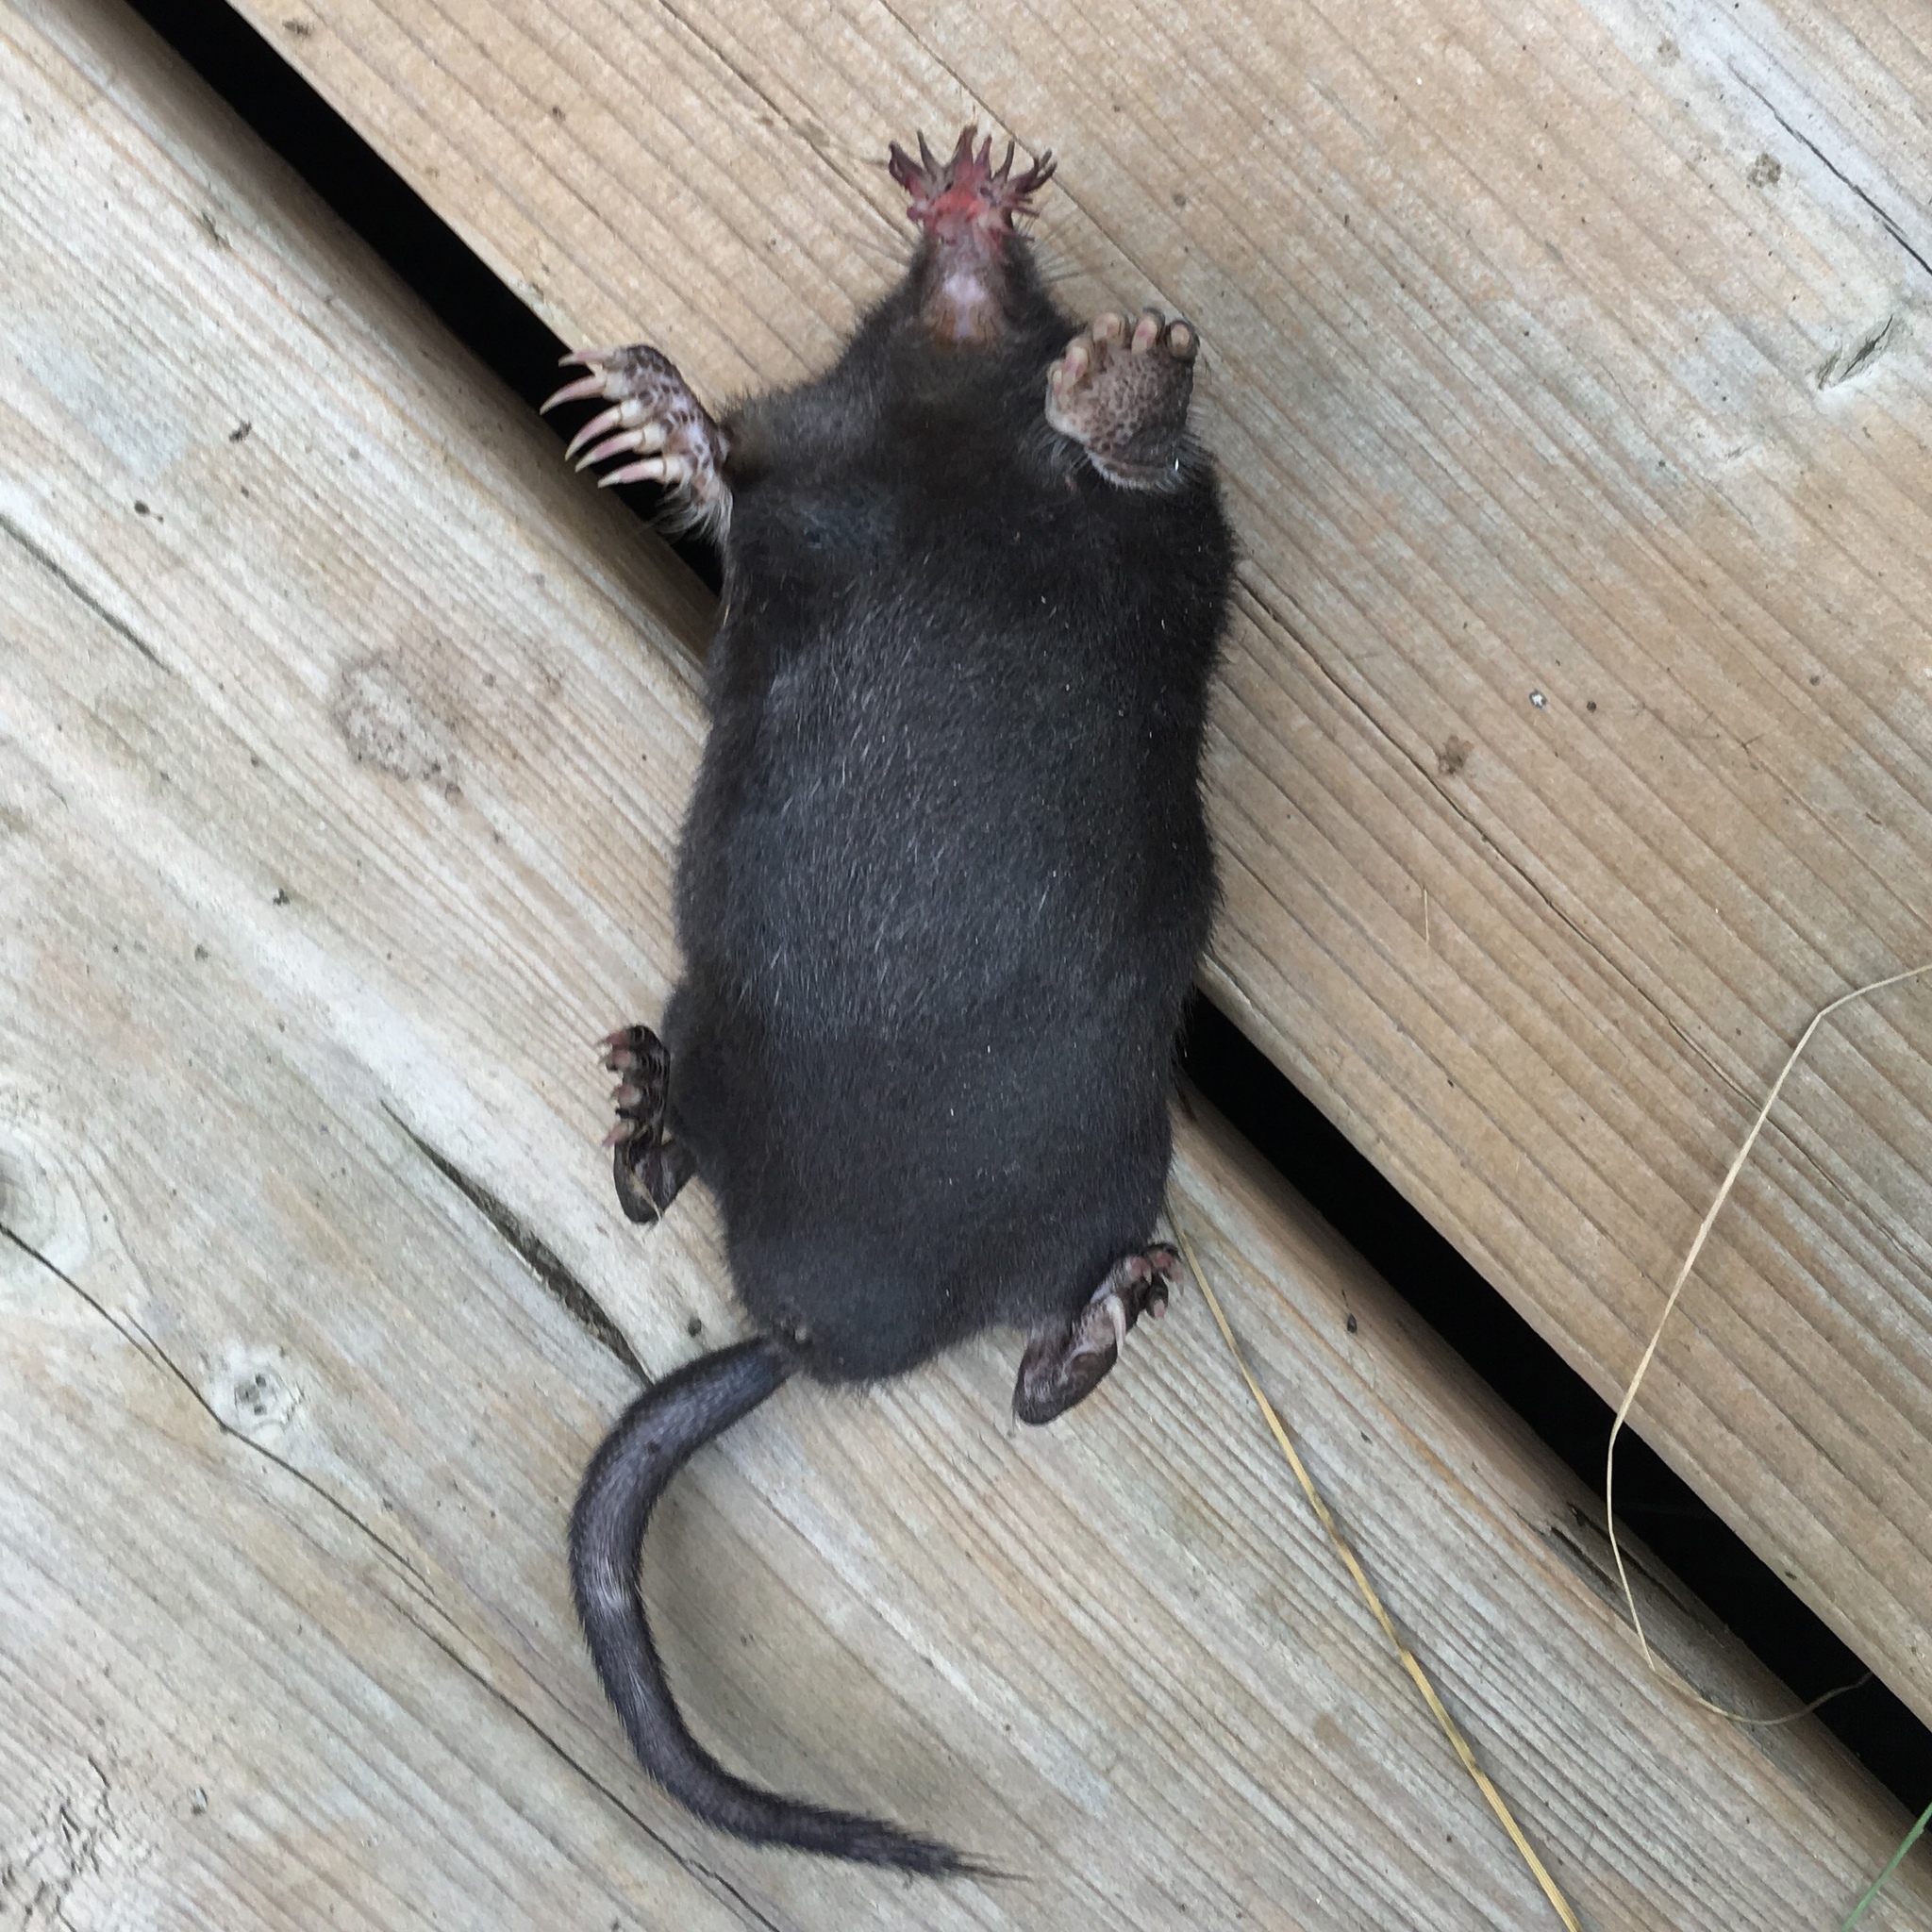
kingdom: Animalia
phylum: Chordata
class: Mammalia
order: Soricomorpha
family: Talpidae
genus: Condylura
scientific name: Condylura cristata
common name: Star-nosed mole
